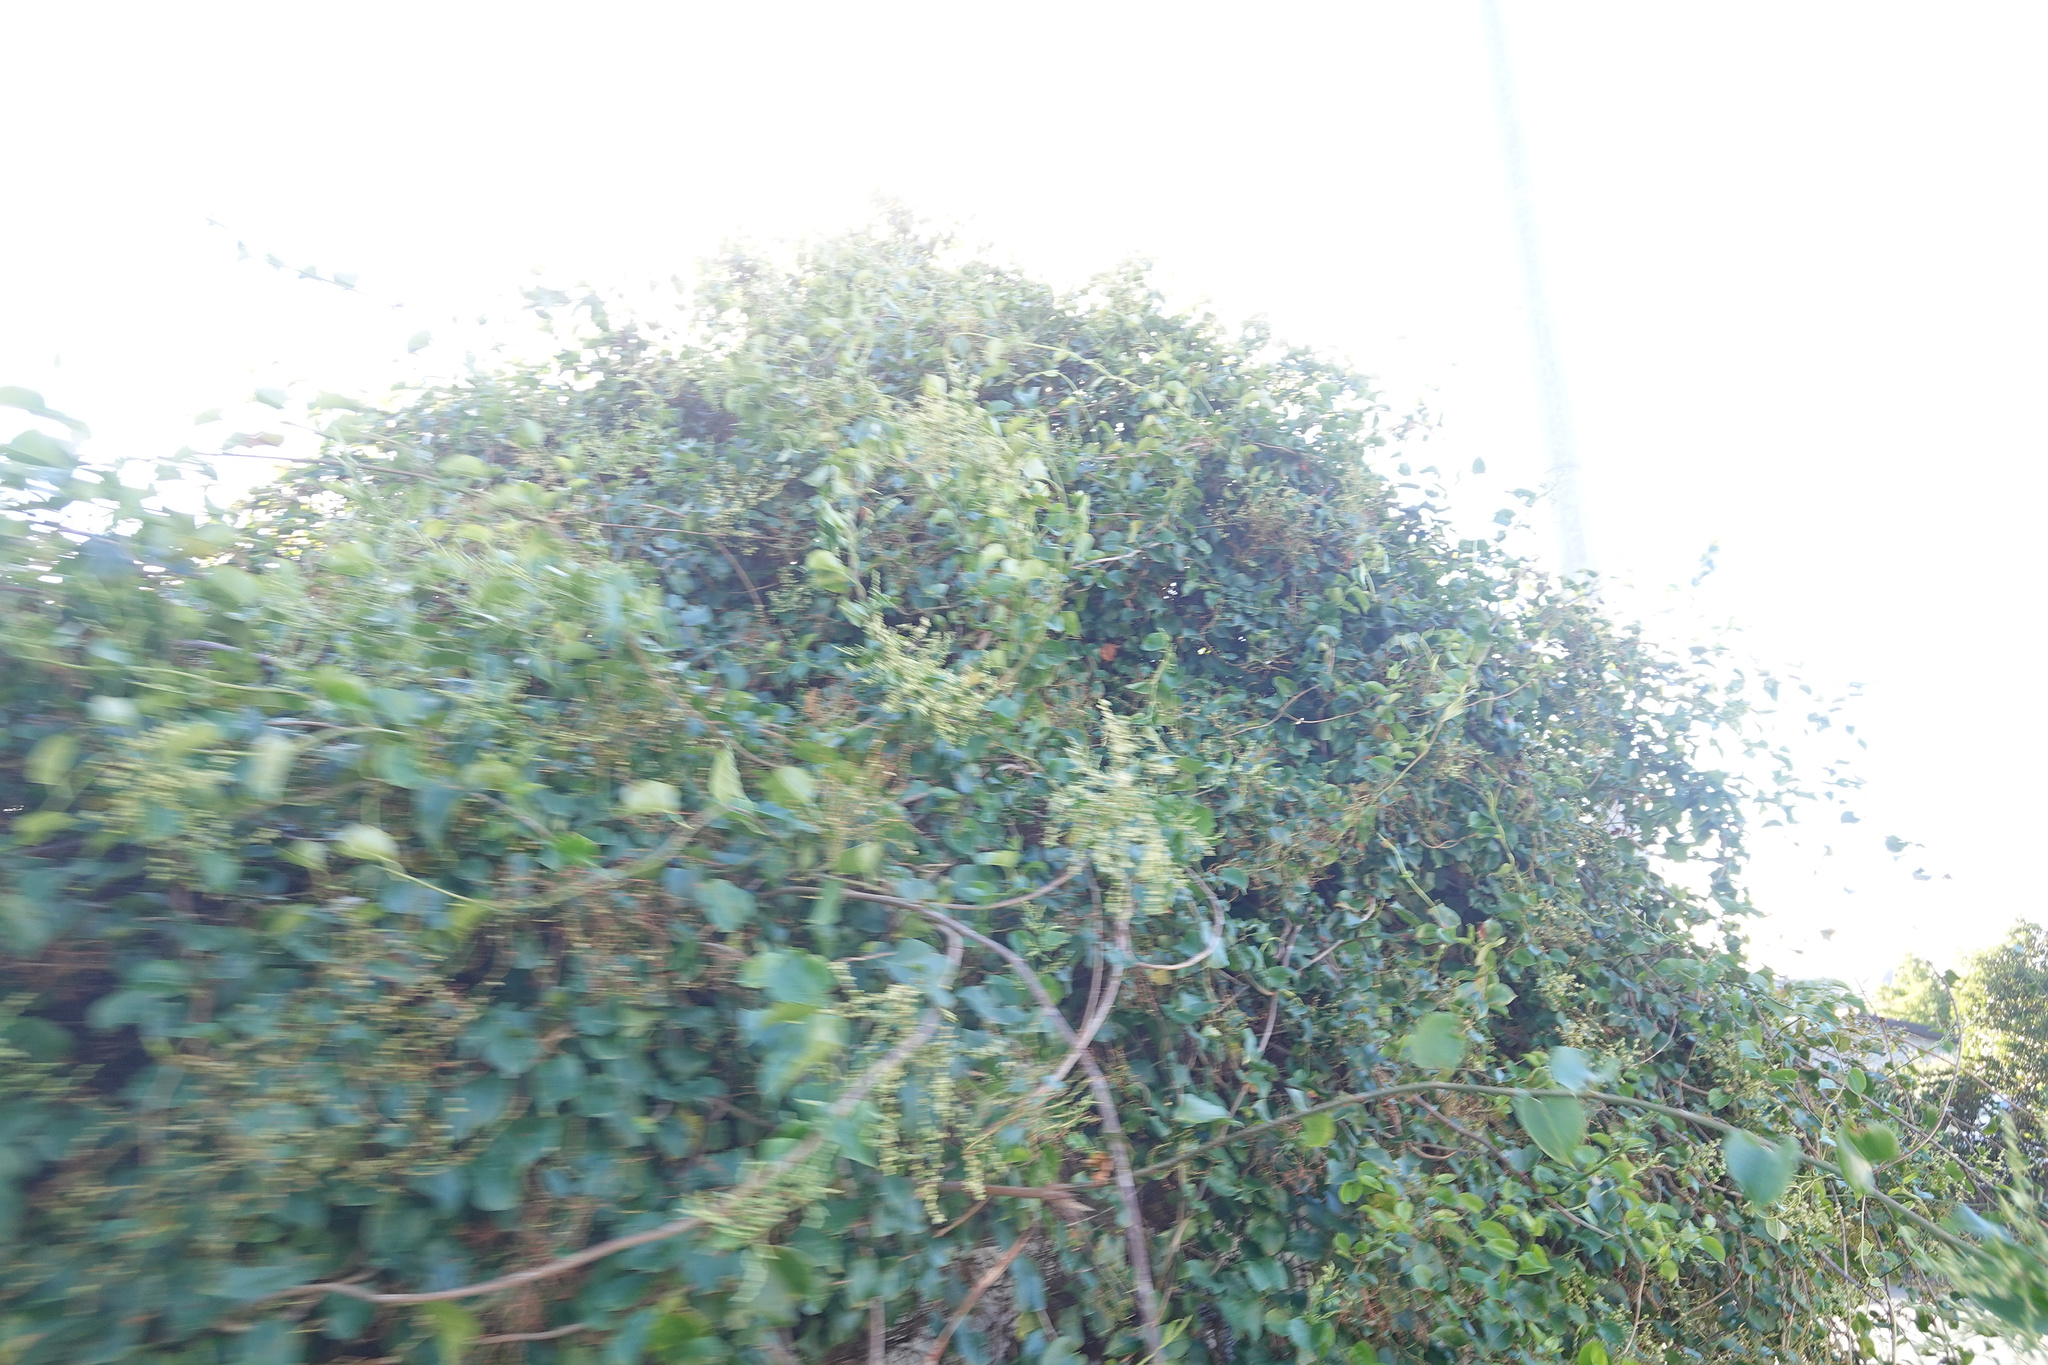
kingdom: Plantae
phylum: Tracheophyta
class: Magnoliopsida
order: Caryophyllales
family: Polygonaceae
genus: Muehlenbeckia
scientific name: Muehlenbeckia australis
